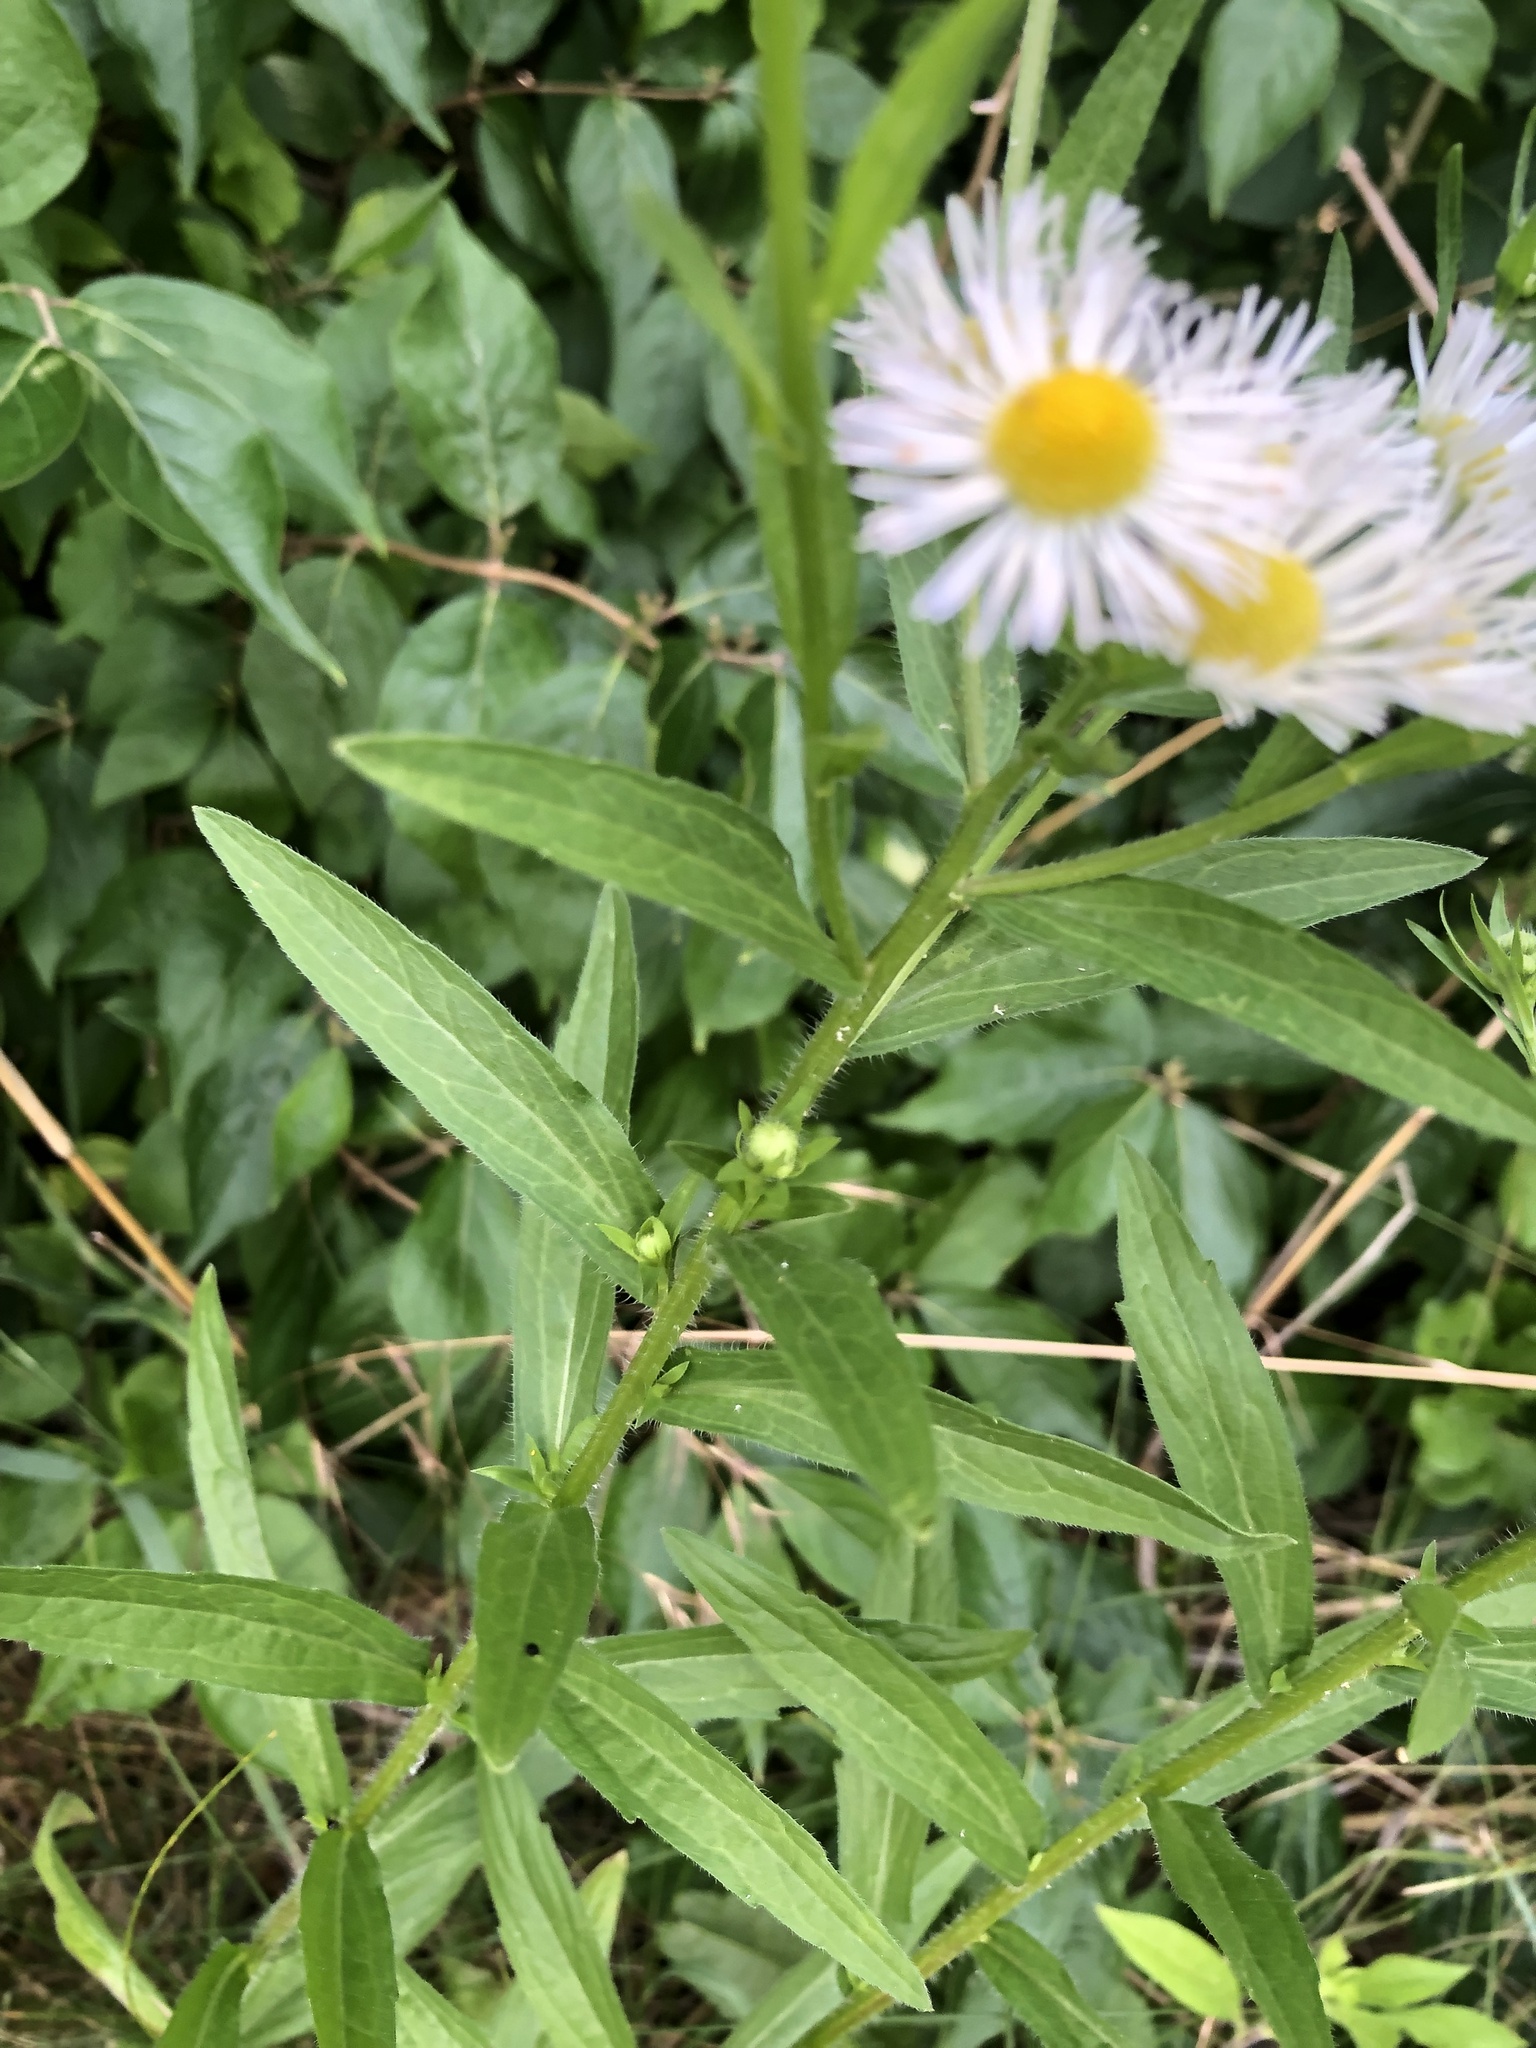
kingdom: Plantae
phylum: Tracheophyta
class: Magnoliopsida
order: Asterales
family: Asteraceae
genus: Erigeron
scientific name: Erigeron philadelphicus
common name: Robin's-plantain
